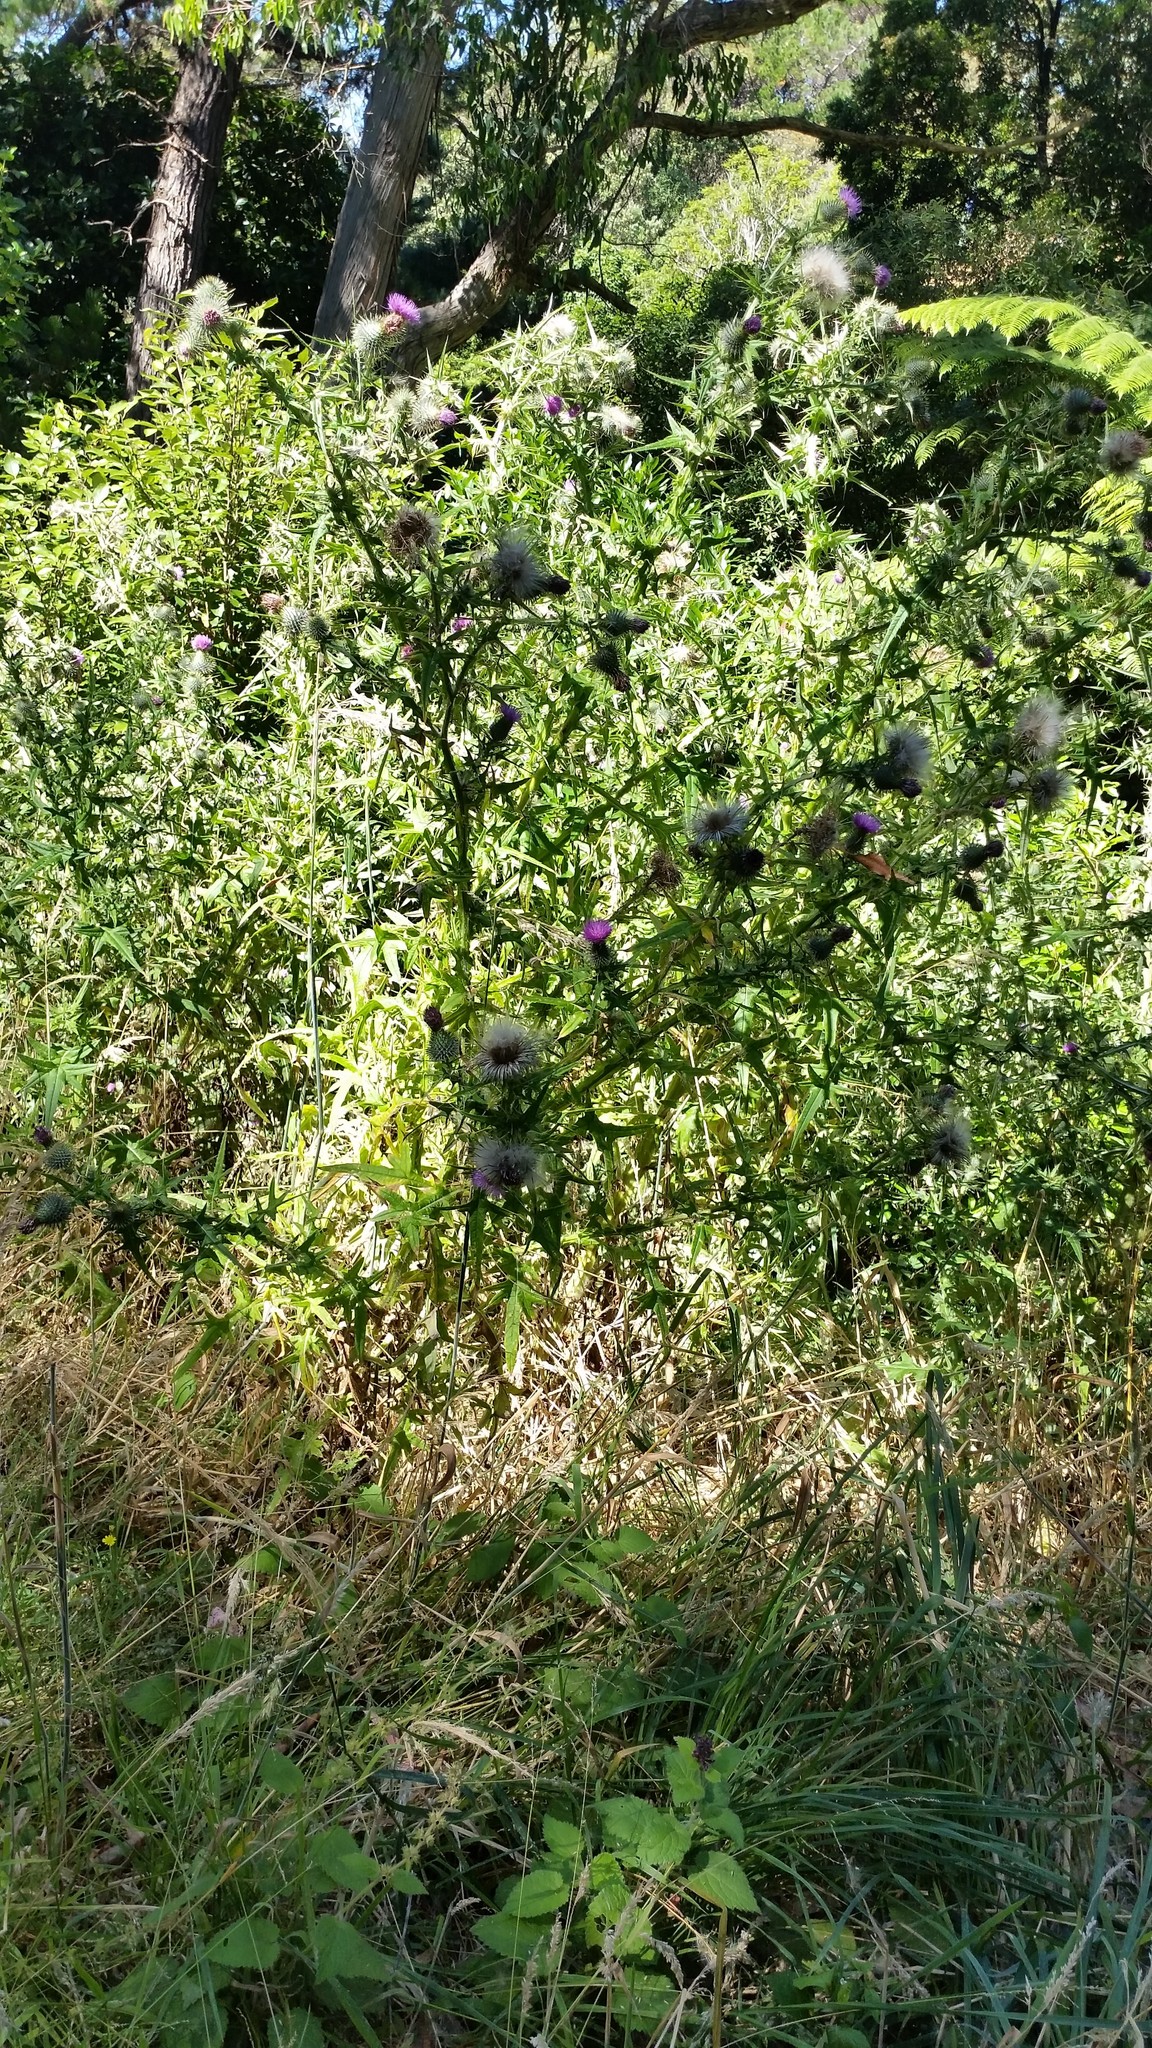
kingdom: Plantae
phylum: Tracheophyta
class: Magnoliopsida
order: Asterales
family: Asteraceae
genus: Cirsium
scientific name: Cirsium vulgare
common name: Bull thistle
